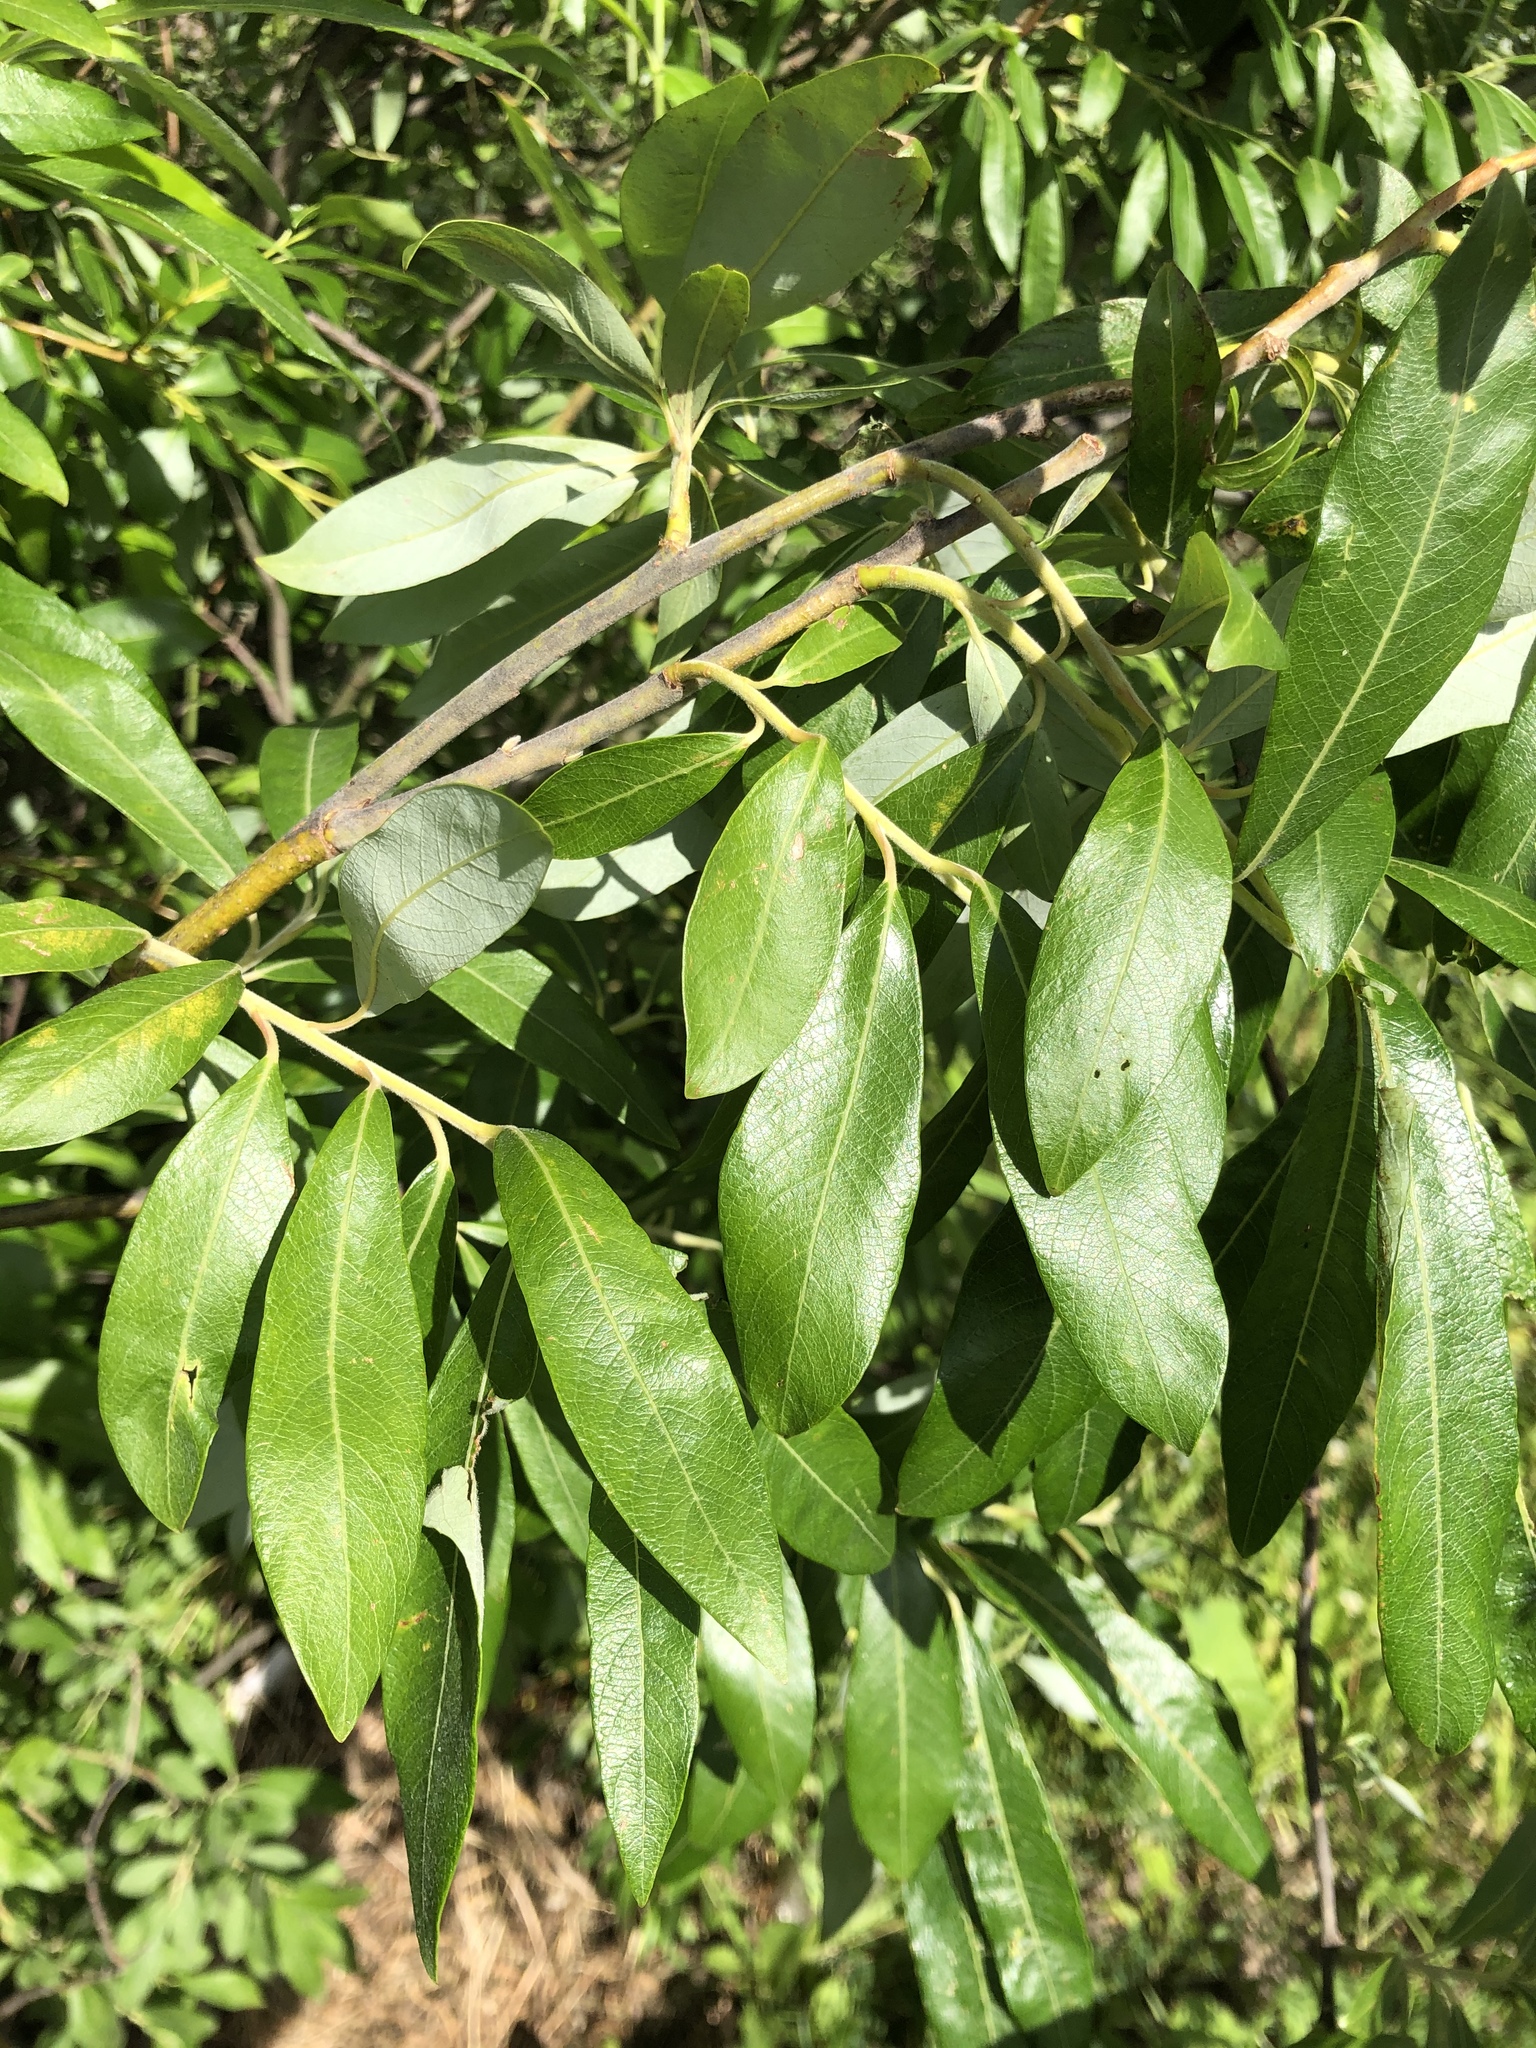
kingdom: Plantae
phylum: Tracheophyta
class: Magnoliopsida
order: Malpighiales
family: Salicaceae
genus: Salix
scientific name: Salix gmelinii
